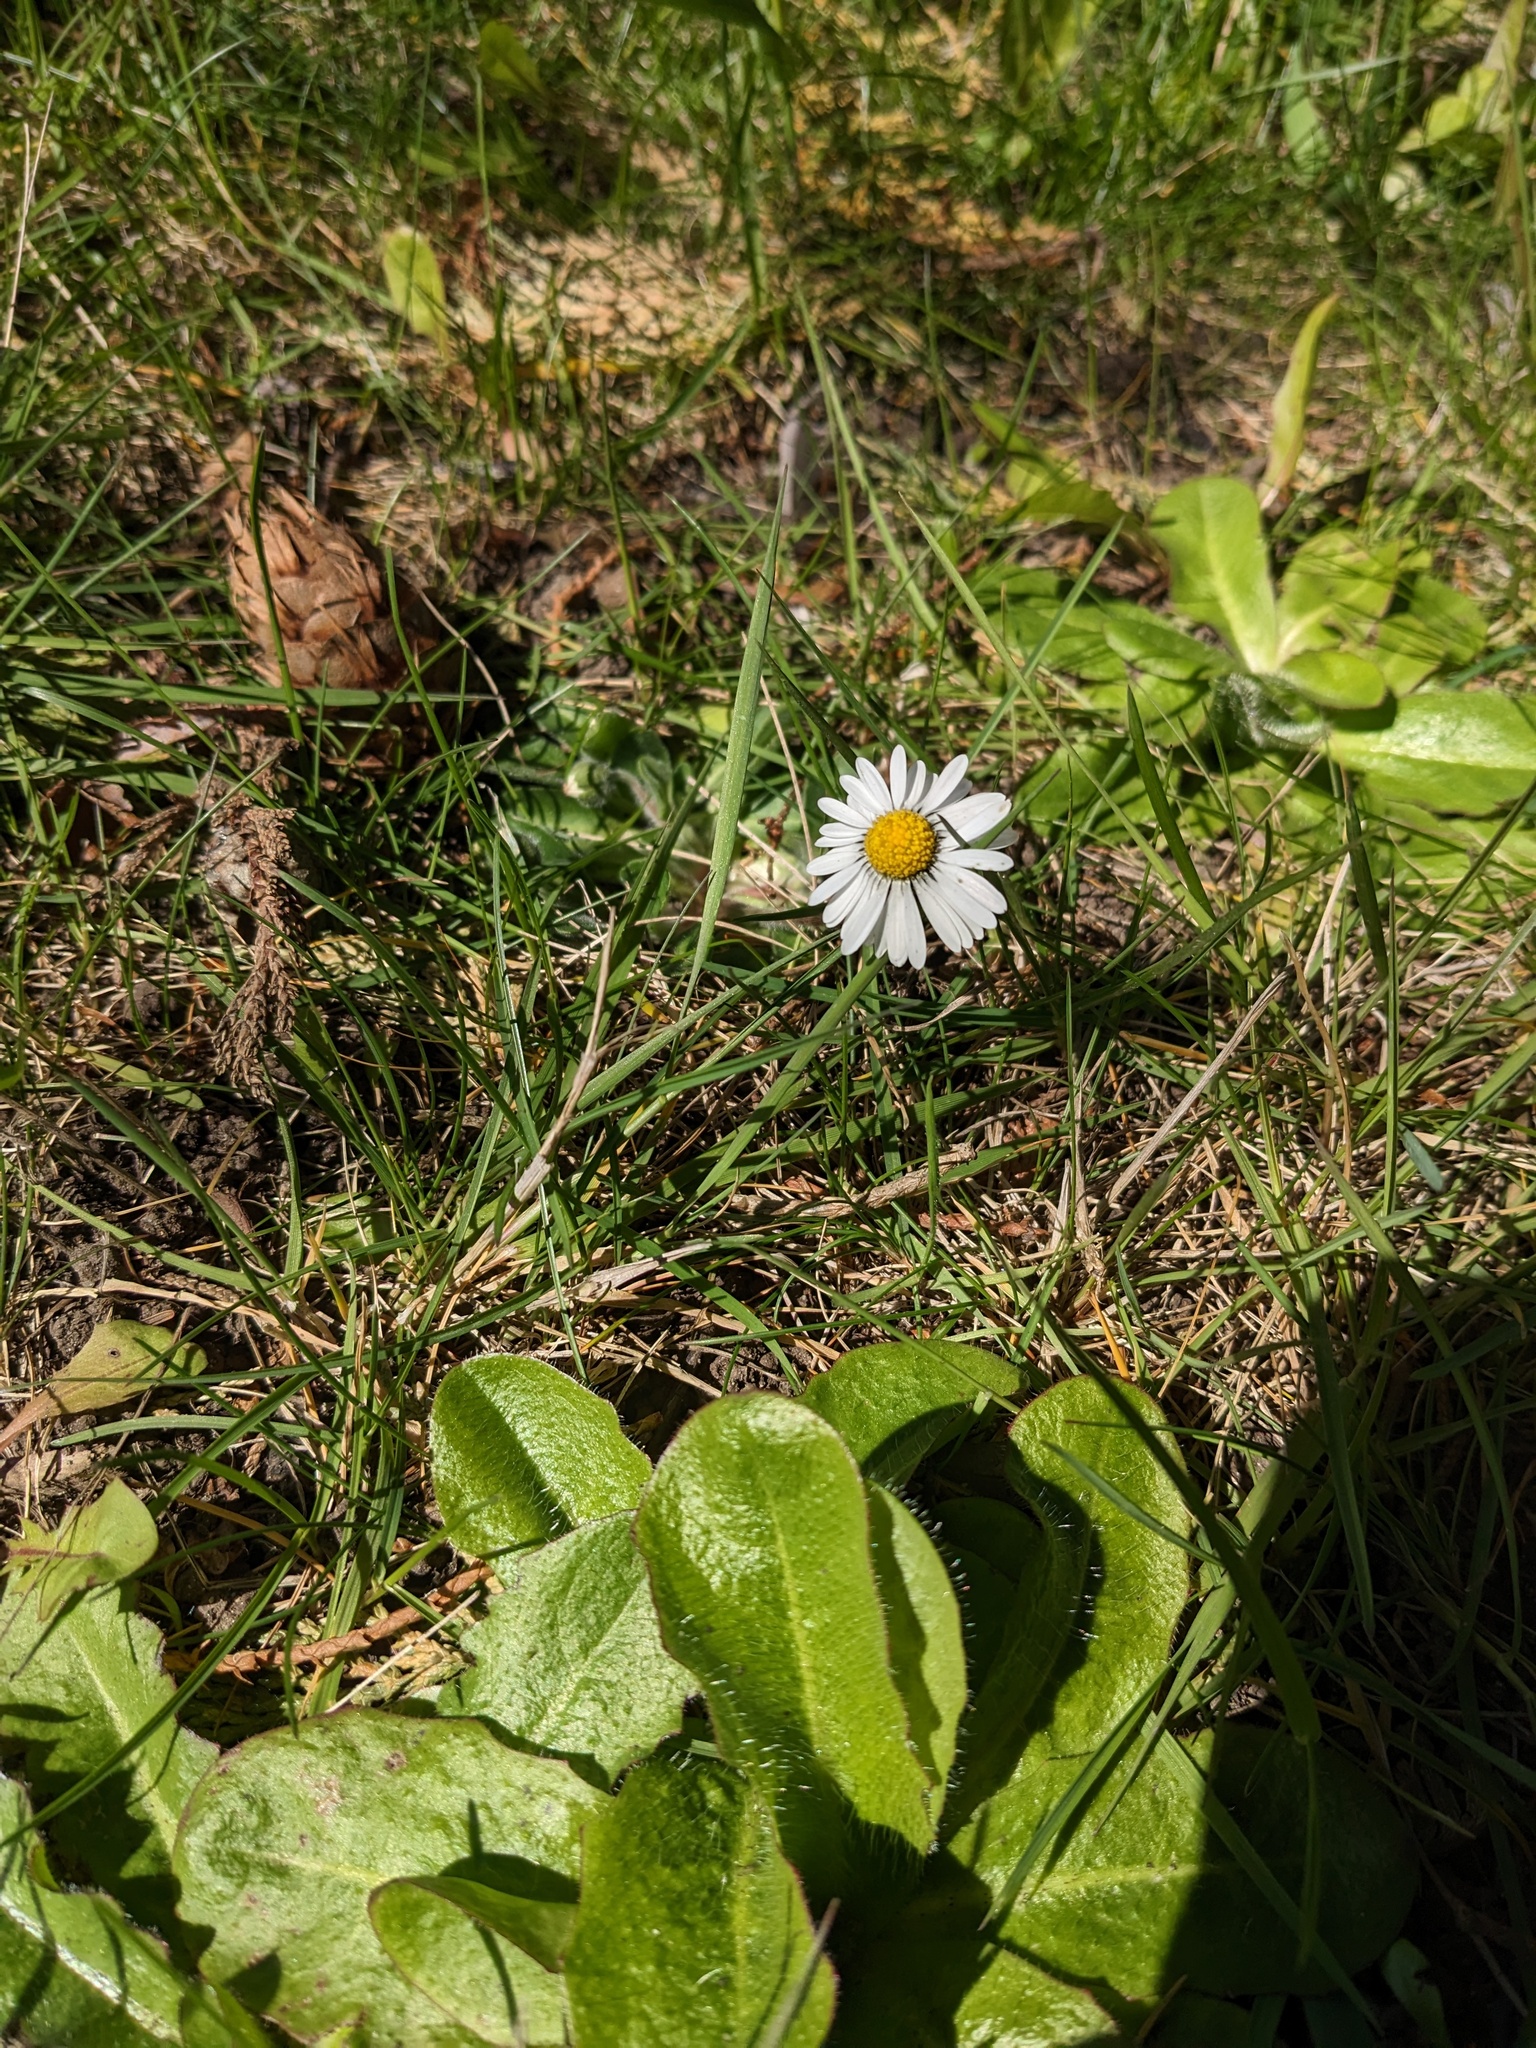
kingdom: Plantae
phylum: Tracheophyta
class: Magnoliopsida
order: Asterales
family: Asteraceae
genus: Bellis
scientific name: Bellis perennis
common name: Lawndaisy
